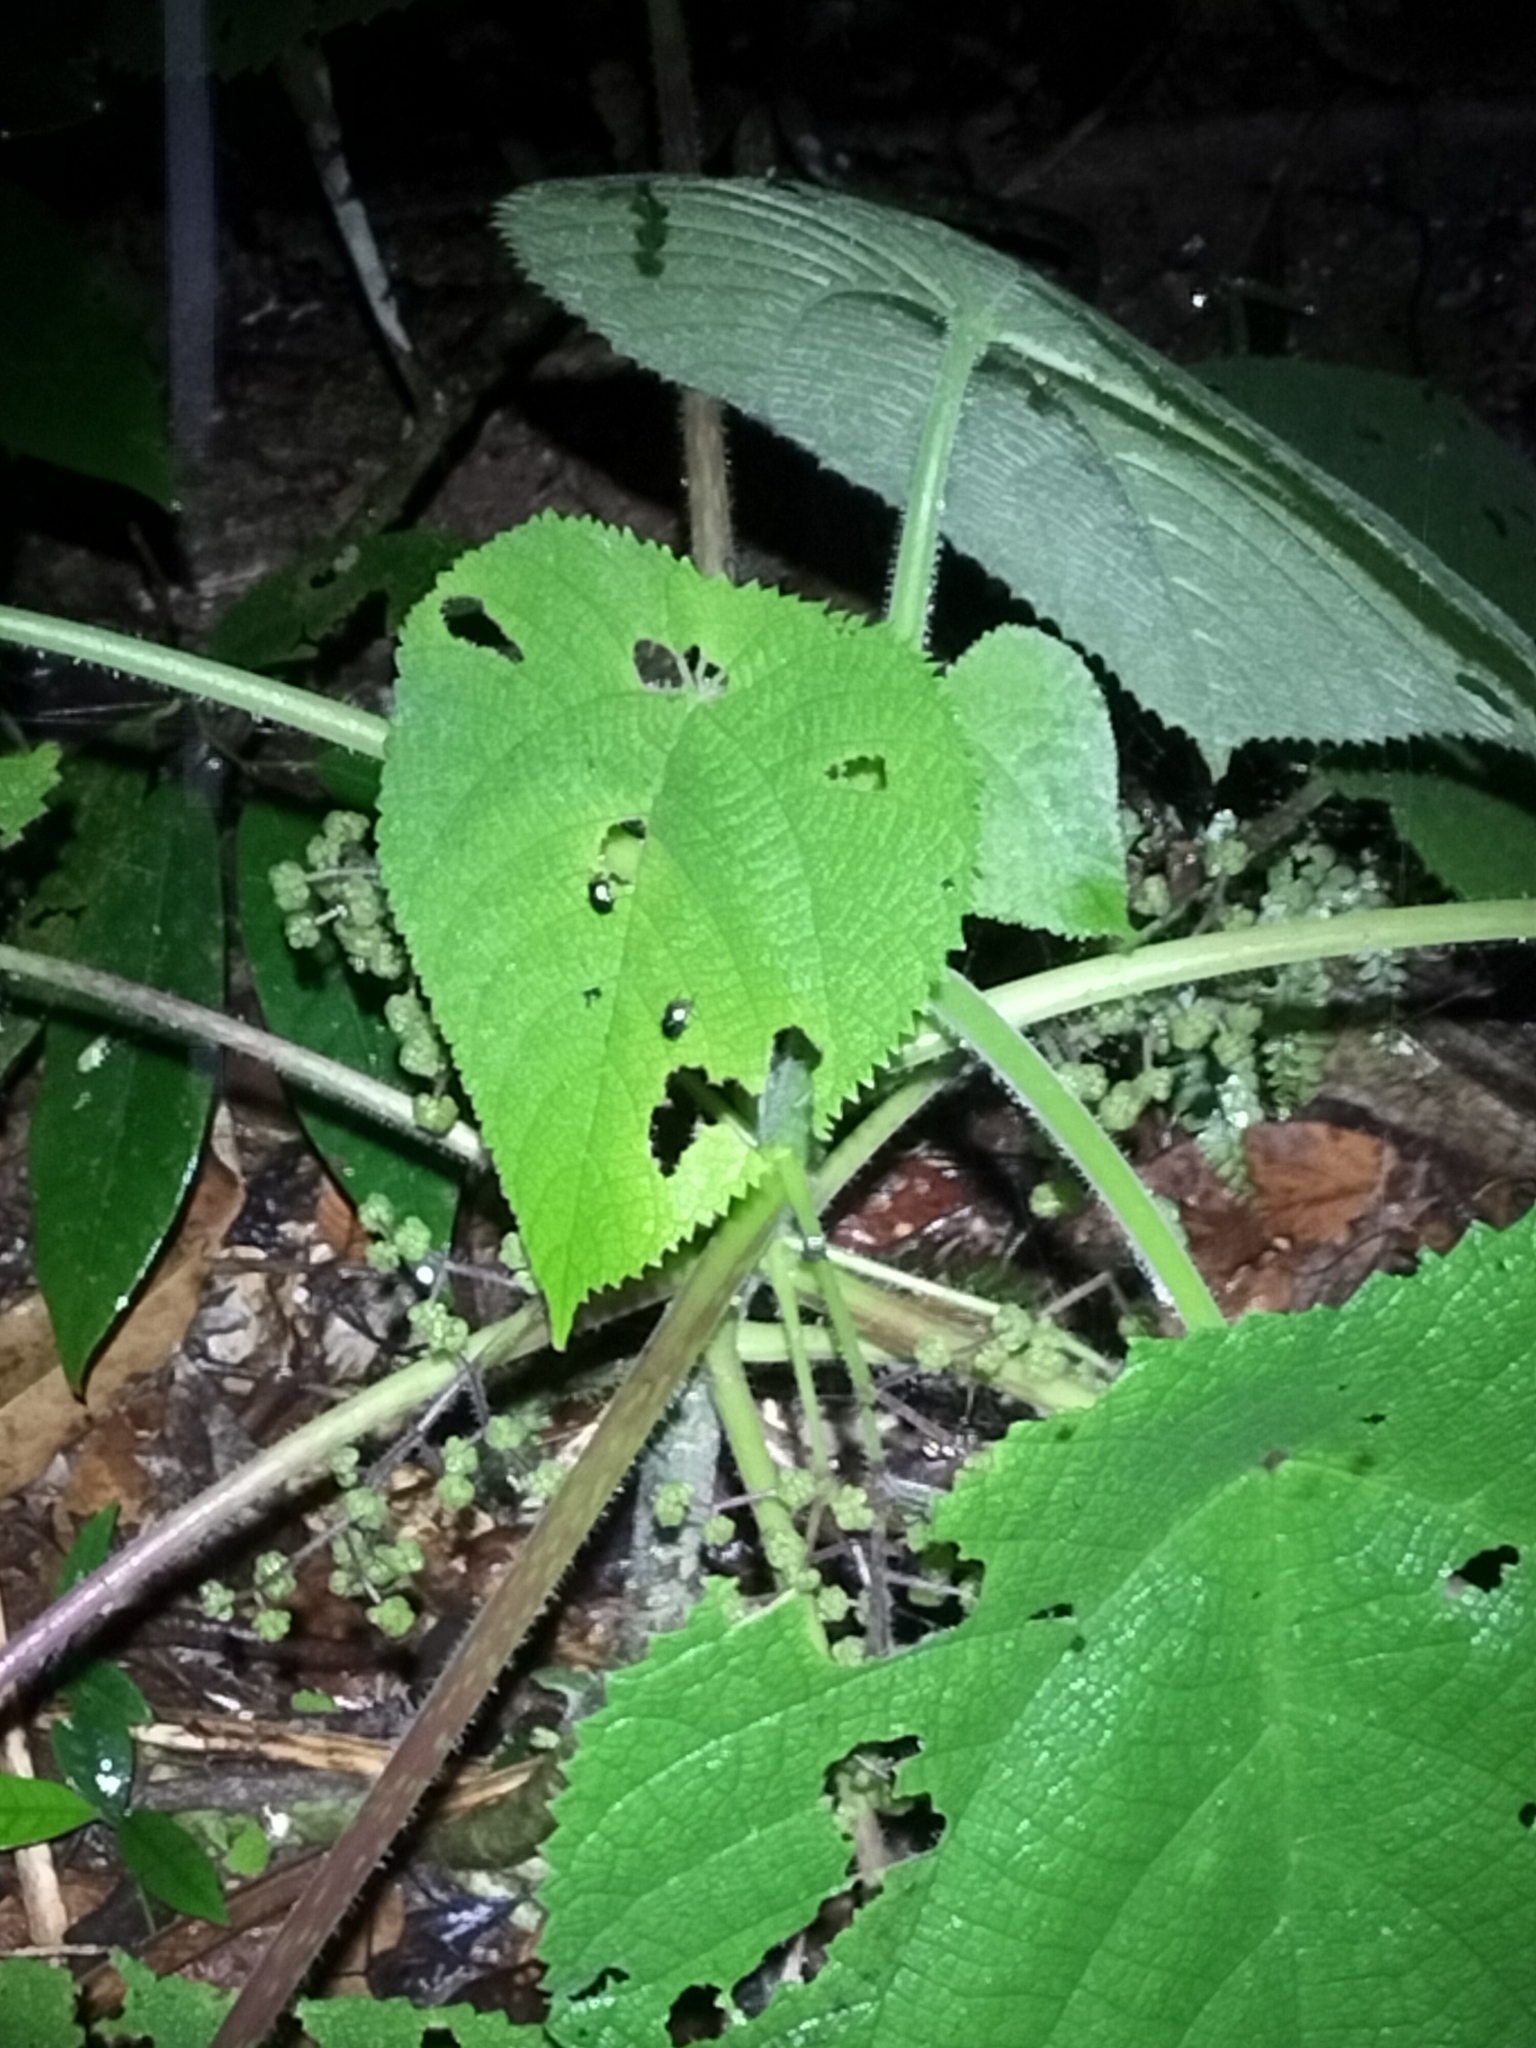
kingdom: Plantae
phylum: Tracheophyta
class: Magnoliopsida
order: Rosales
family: Urticaceae
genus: Dendrocnide
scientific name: Dendrocnide moroides
